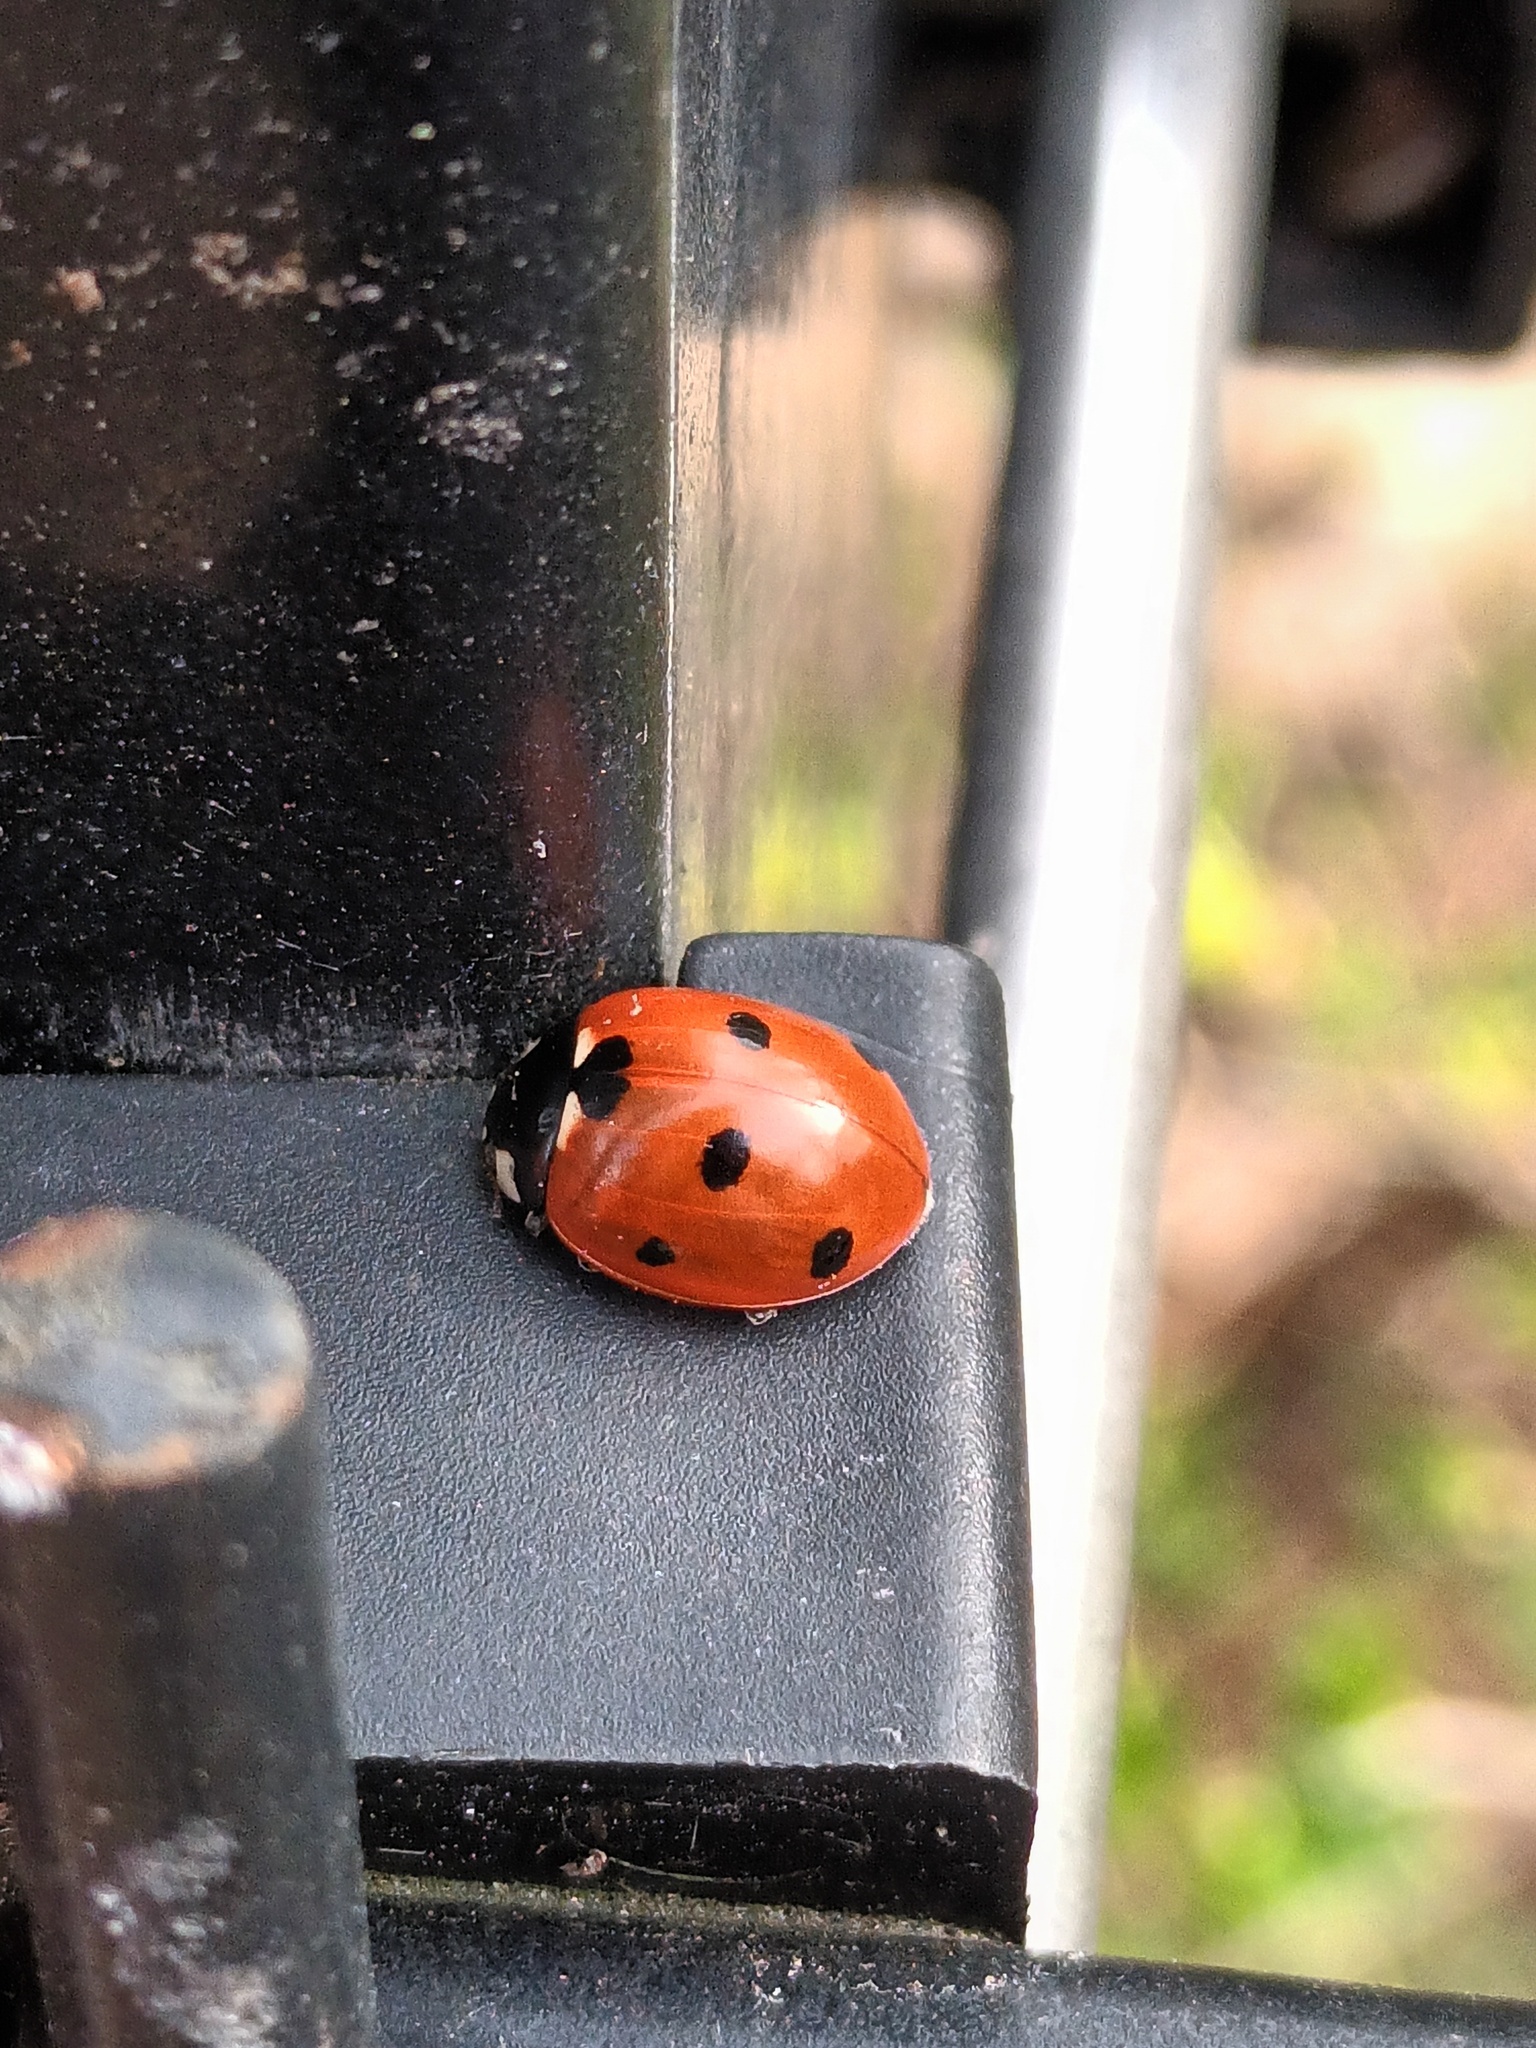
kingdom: Animalia
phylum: Arthropoda
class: Insecta
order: Coleoptera
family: Coccinellidae
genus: Coccinella
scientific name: Coccinella septempunctata
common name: Sevenspotted lady beetle
